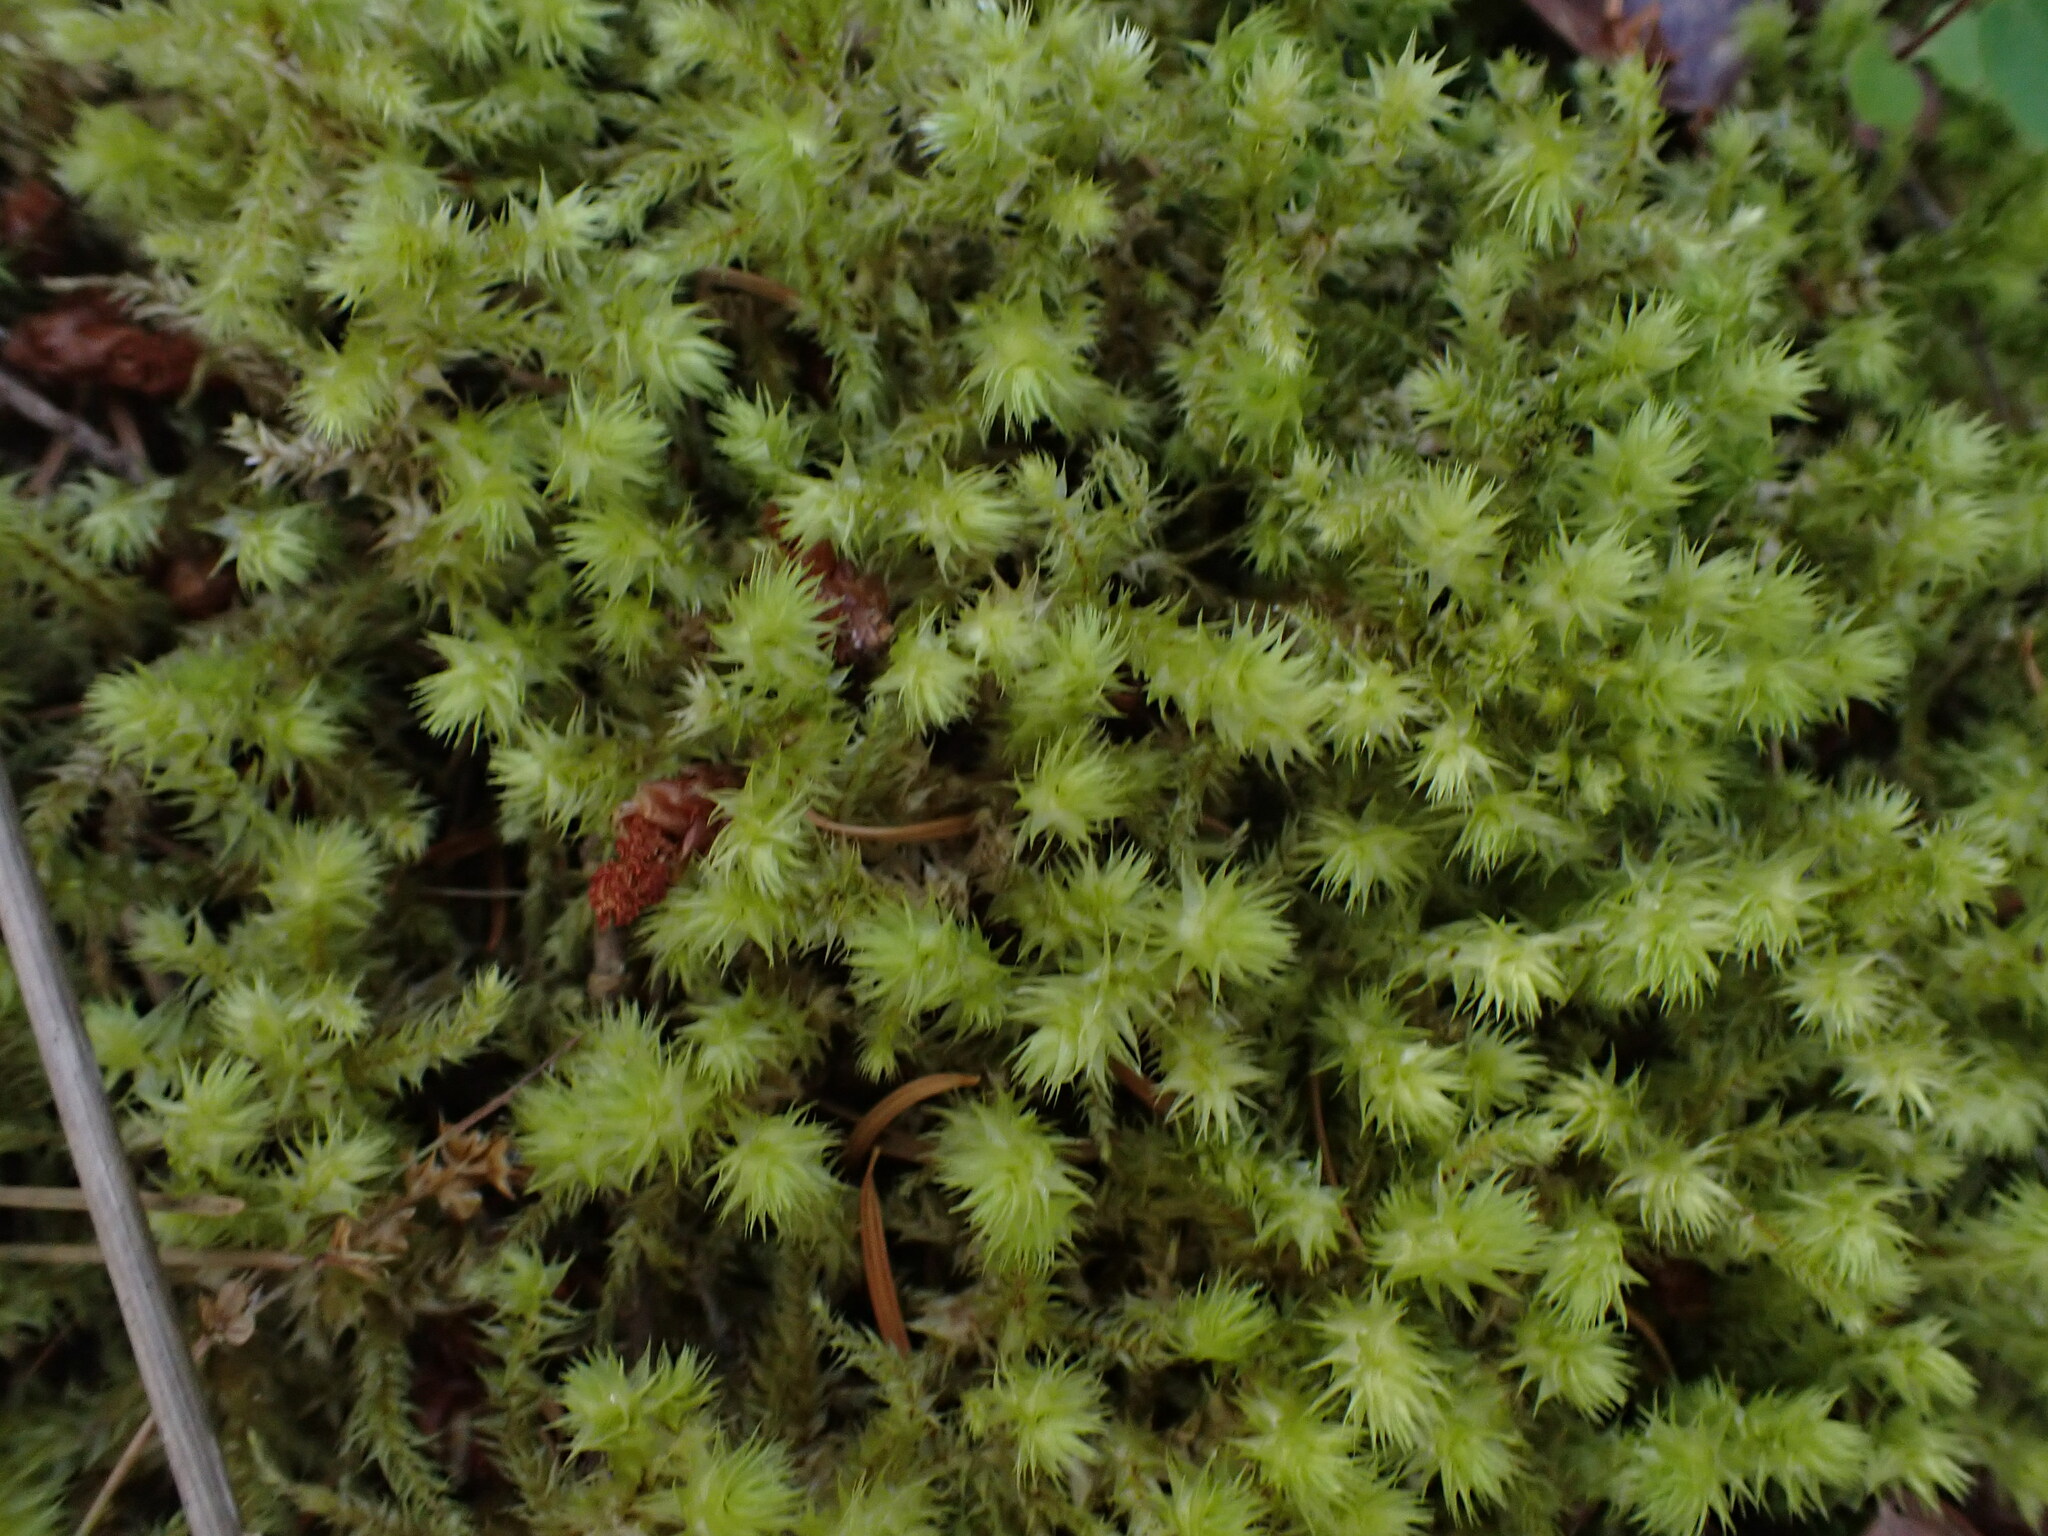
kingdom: Plantae
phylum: Bryophyta
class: Bryopsida
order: Hypnales
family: Hylocomiaceae
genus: Hylocomiadelphus
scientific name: Hylocomiadelphus triquetrus
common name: Rough goose neck moss
